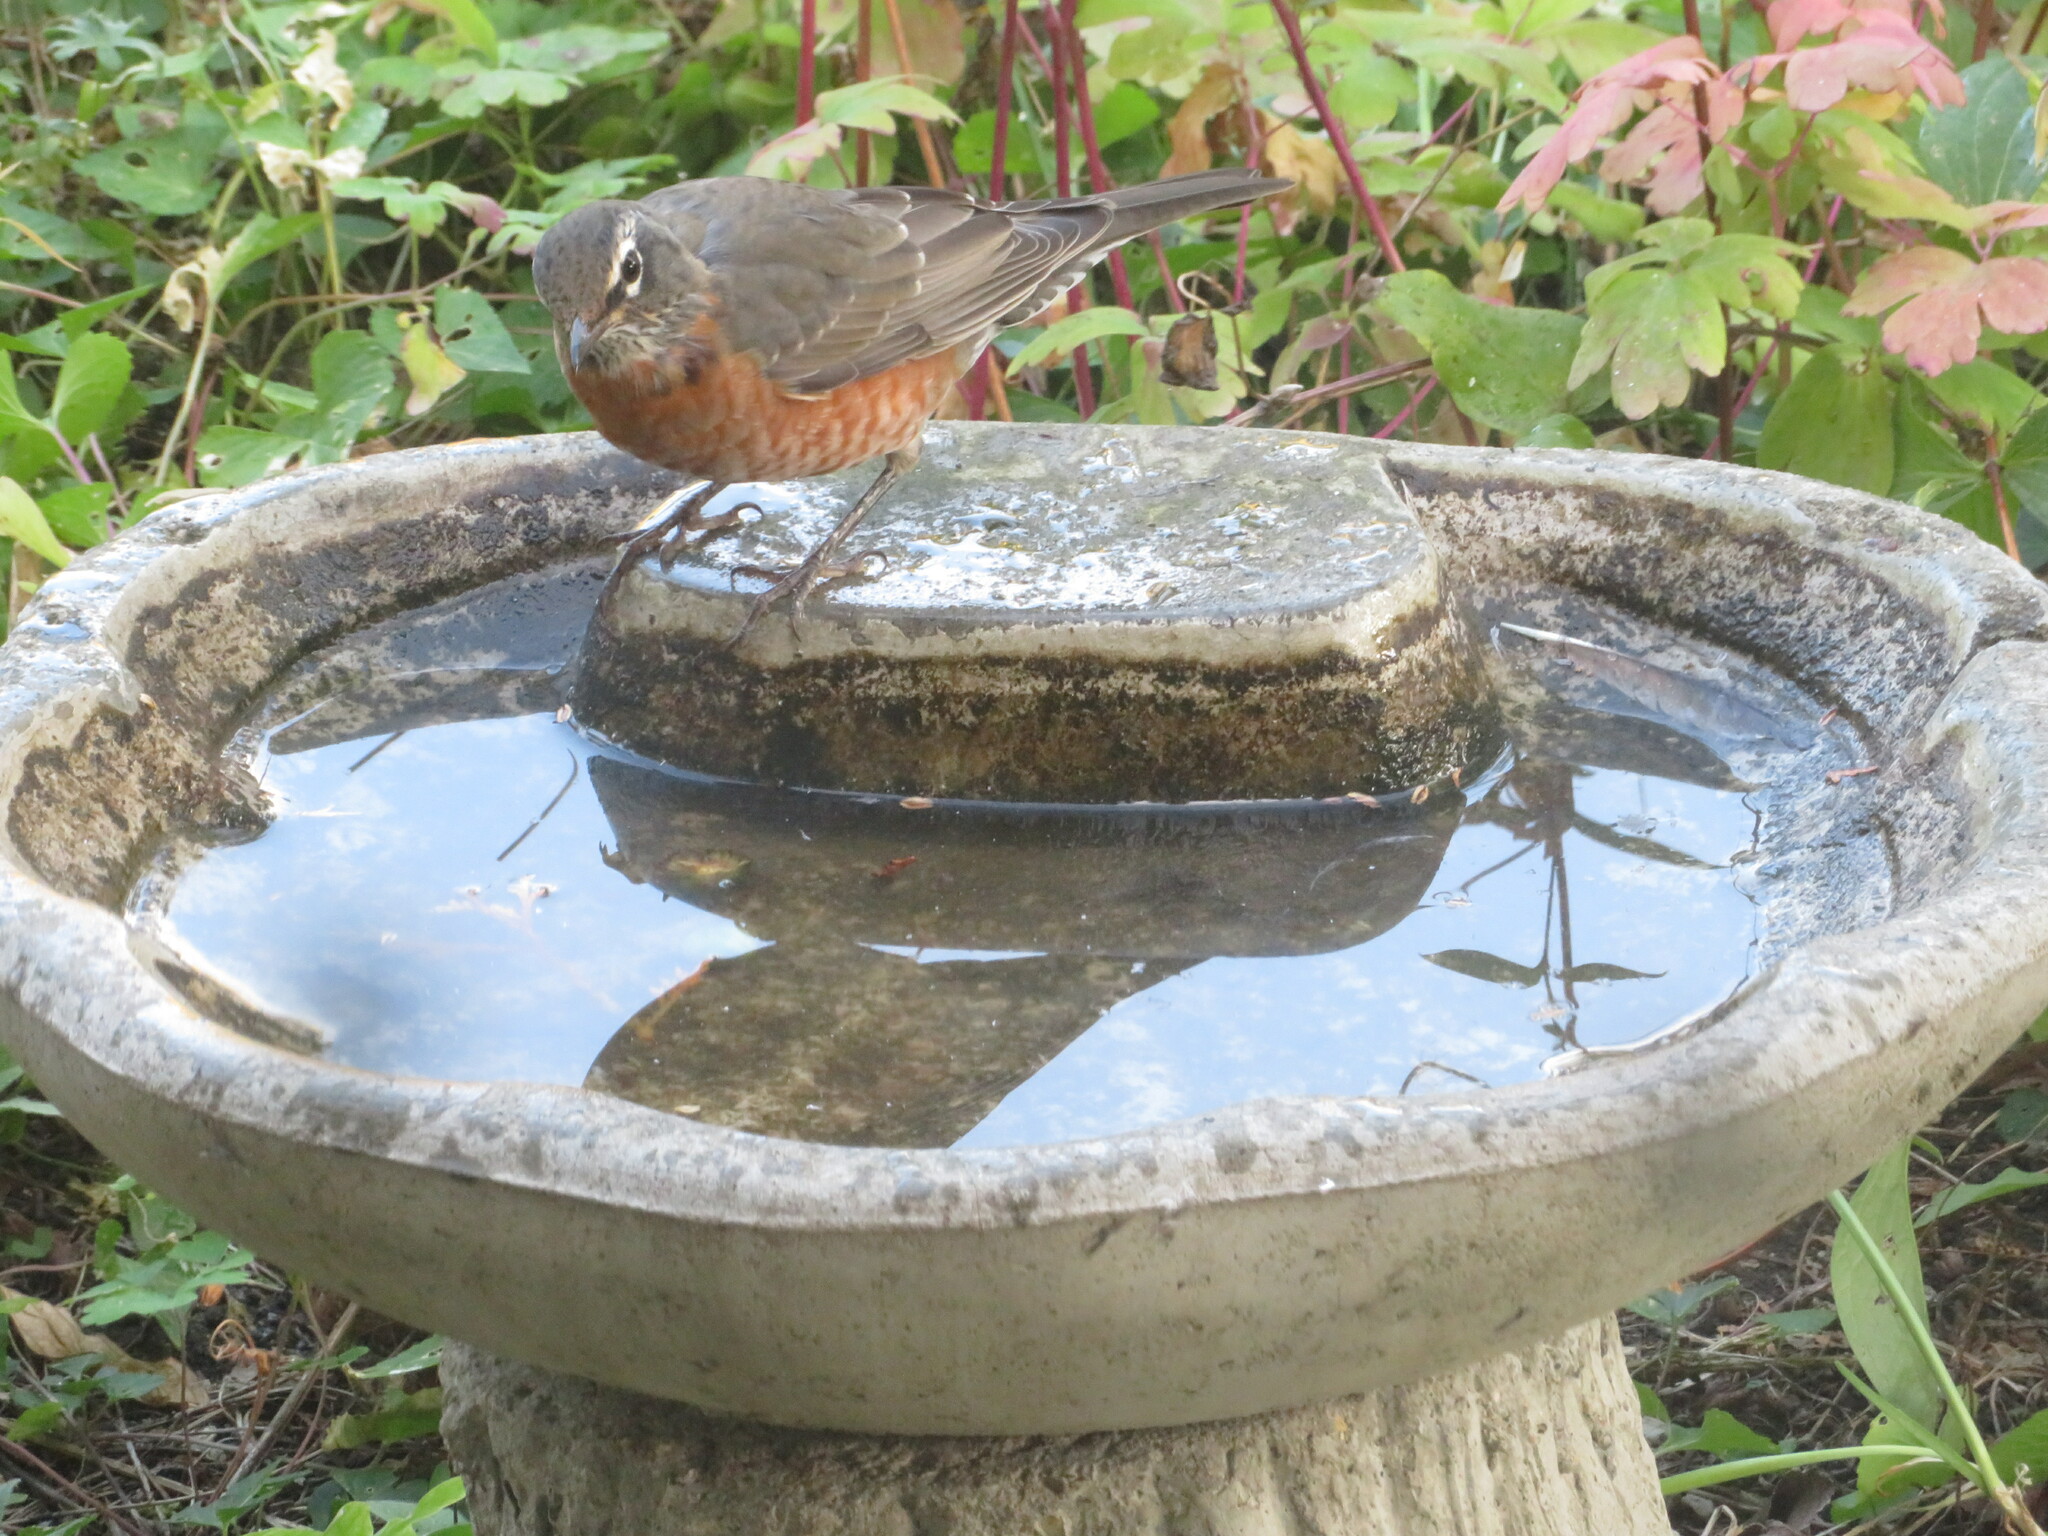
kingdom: Animalia
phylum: Chordata
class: Aves
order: Passeriformes
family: Turdidae
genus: Turdus
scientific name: Turdus migratorius
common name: American robin
